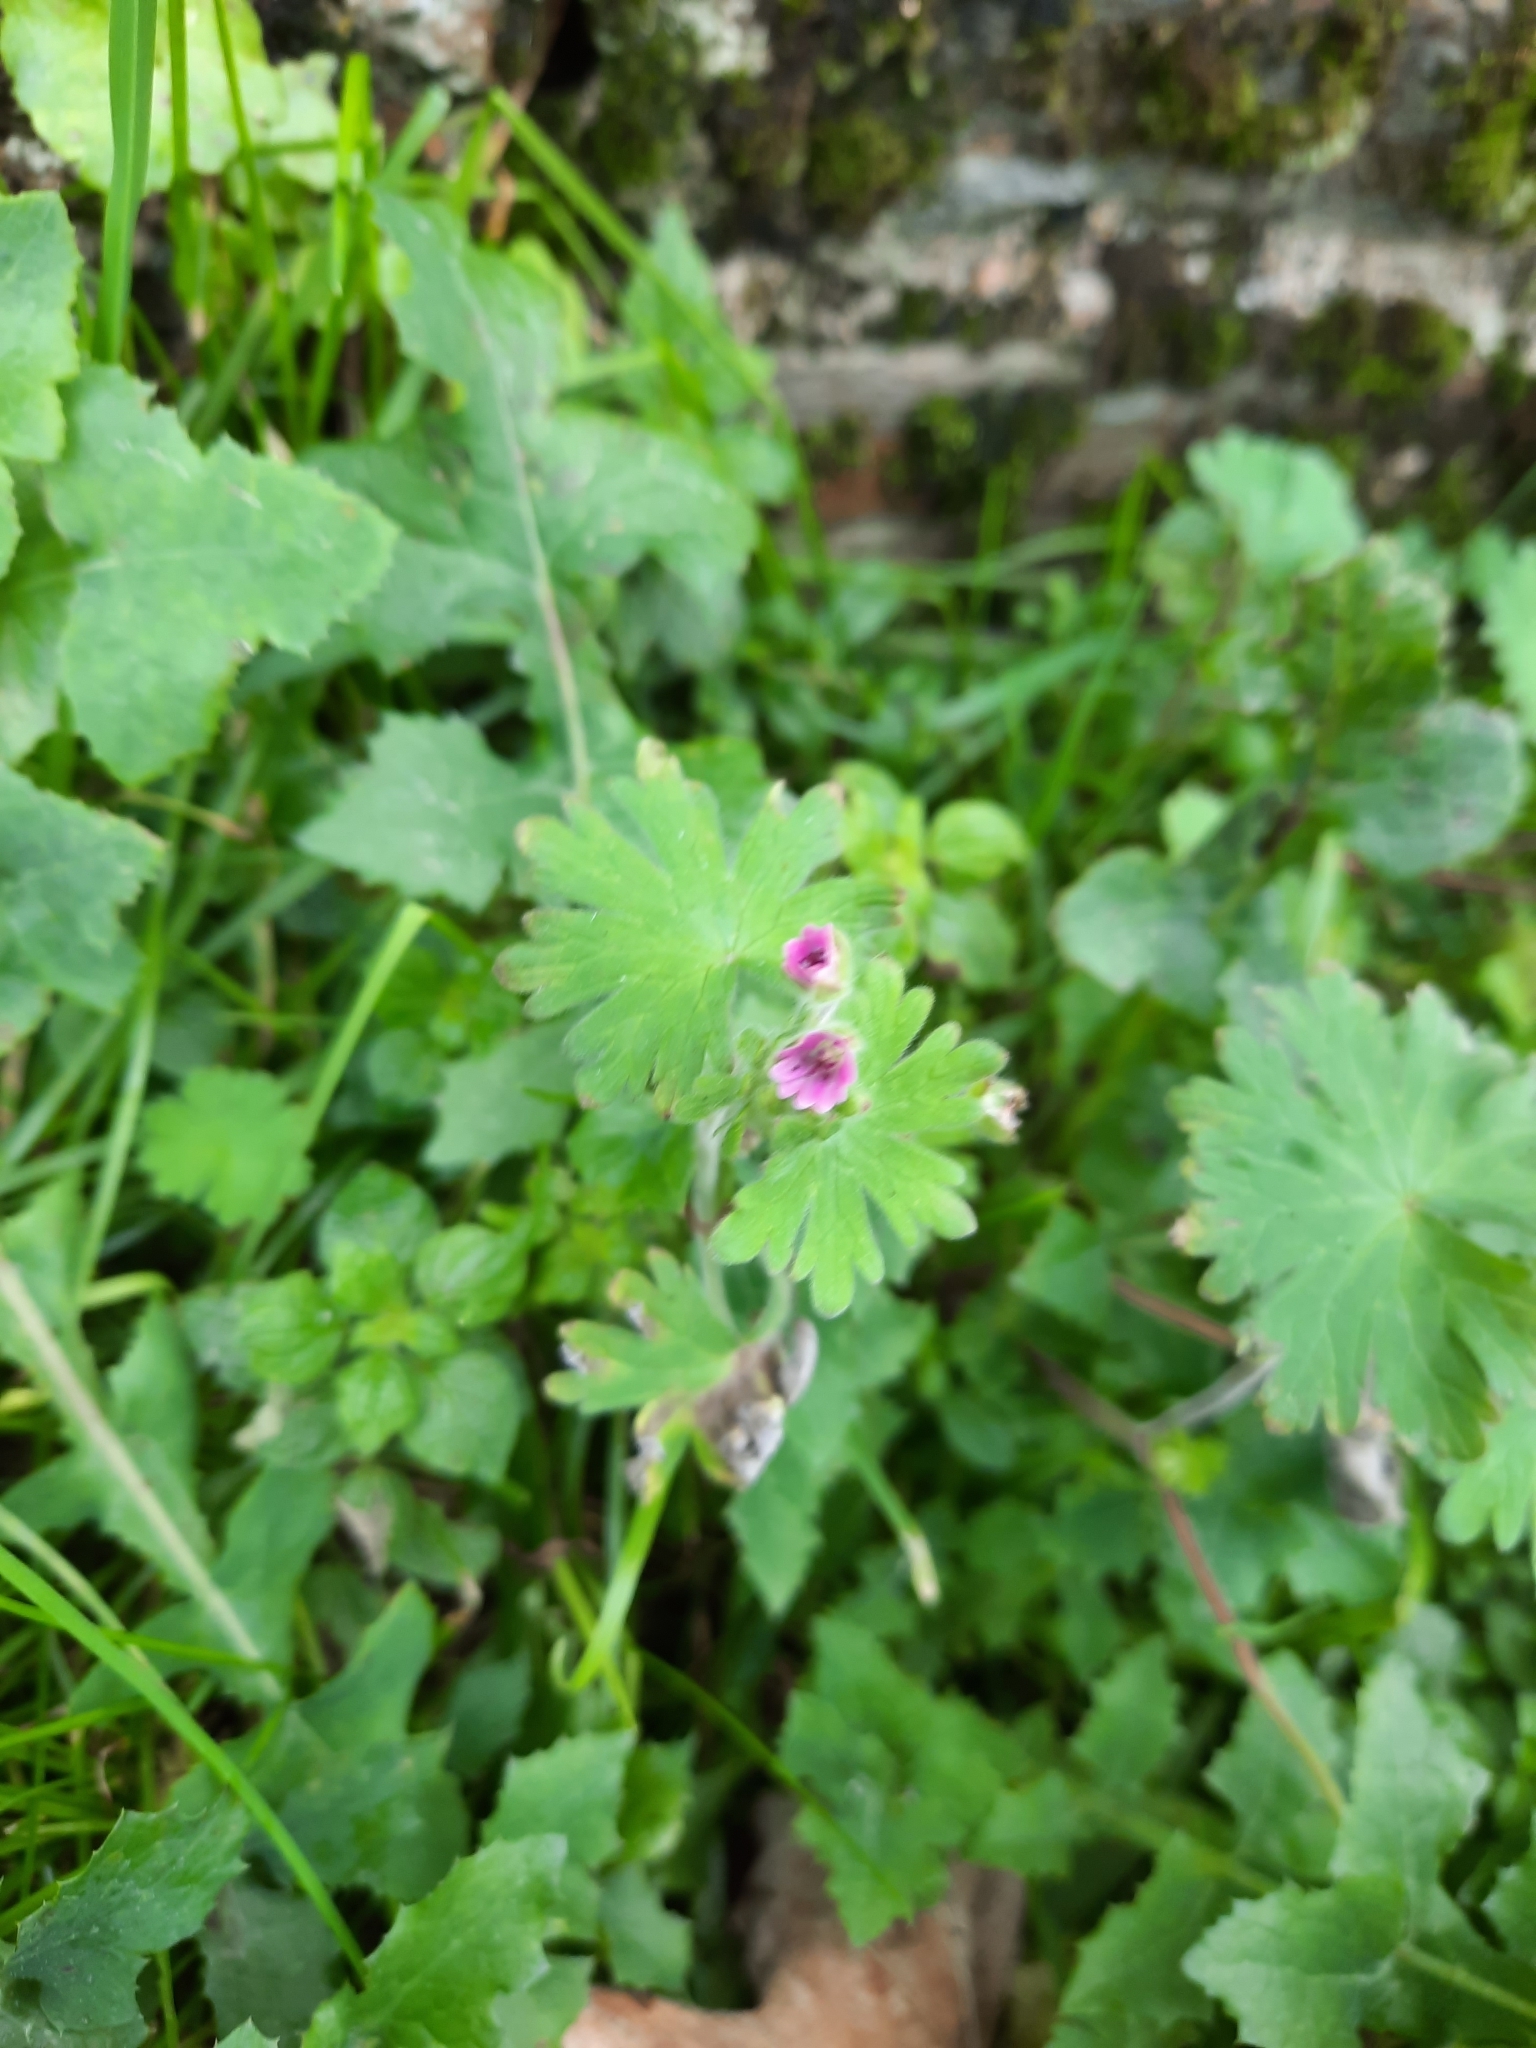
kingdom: Plantae
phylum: Tracheophyta
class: Magnoliopsida
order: Geraniales
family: Geraniaceae
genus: Geranium
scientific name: Geranium molle
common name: Dove's-foot crane's-bill
